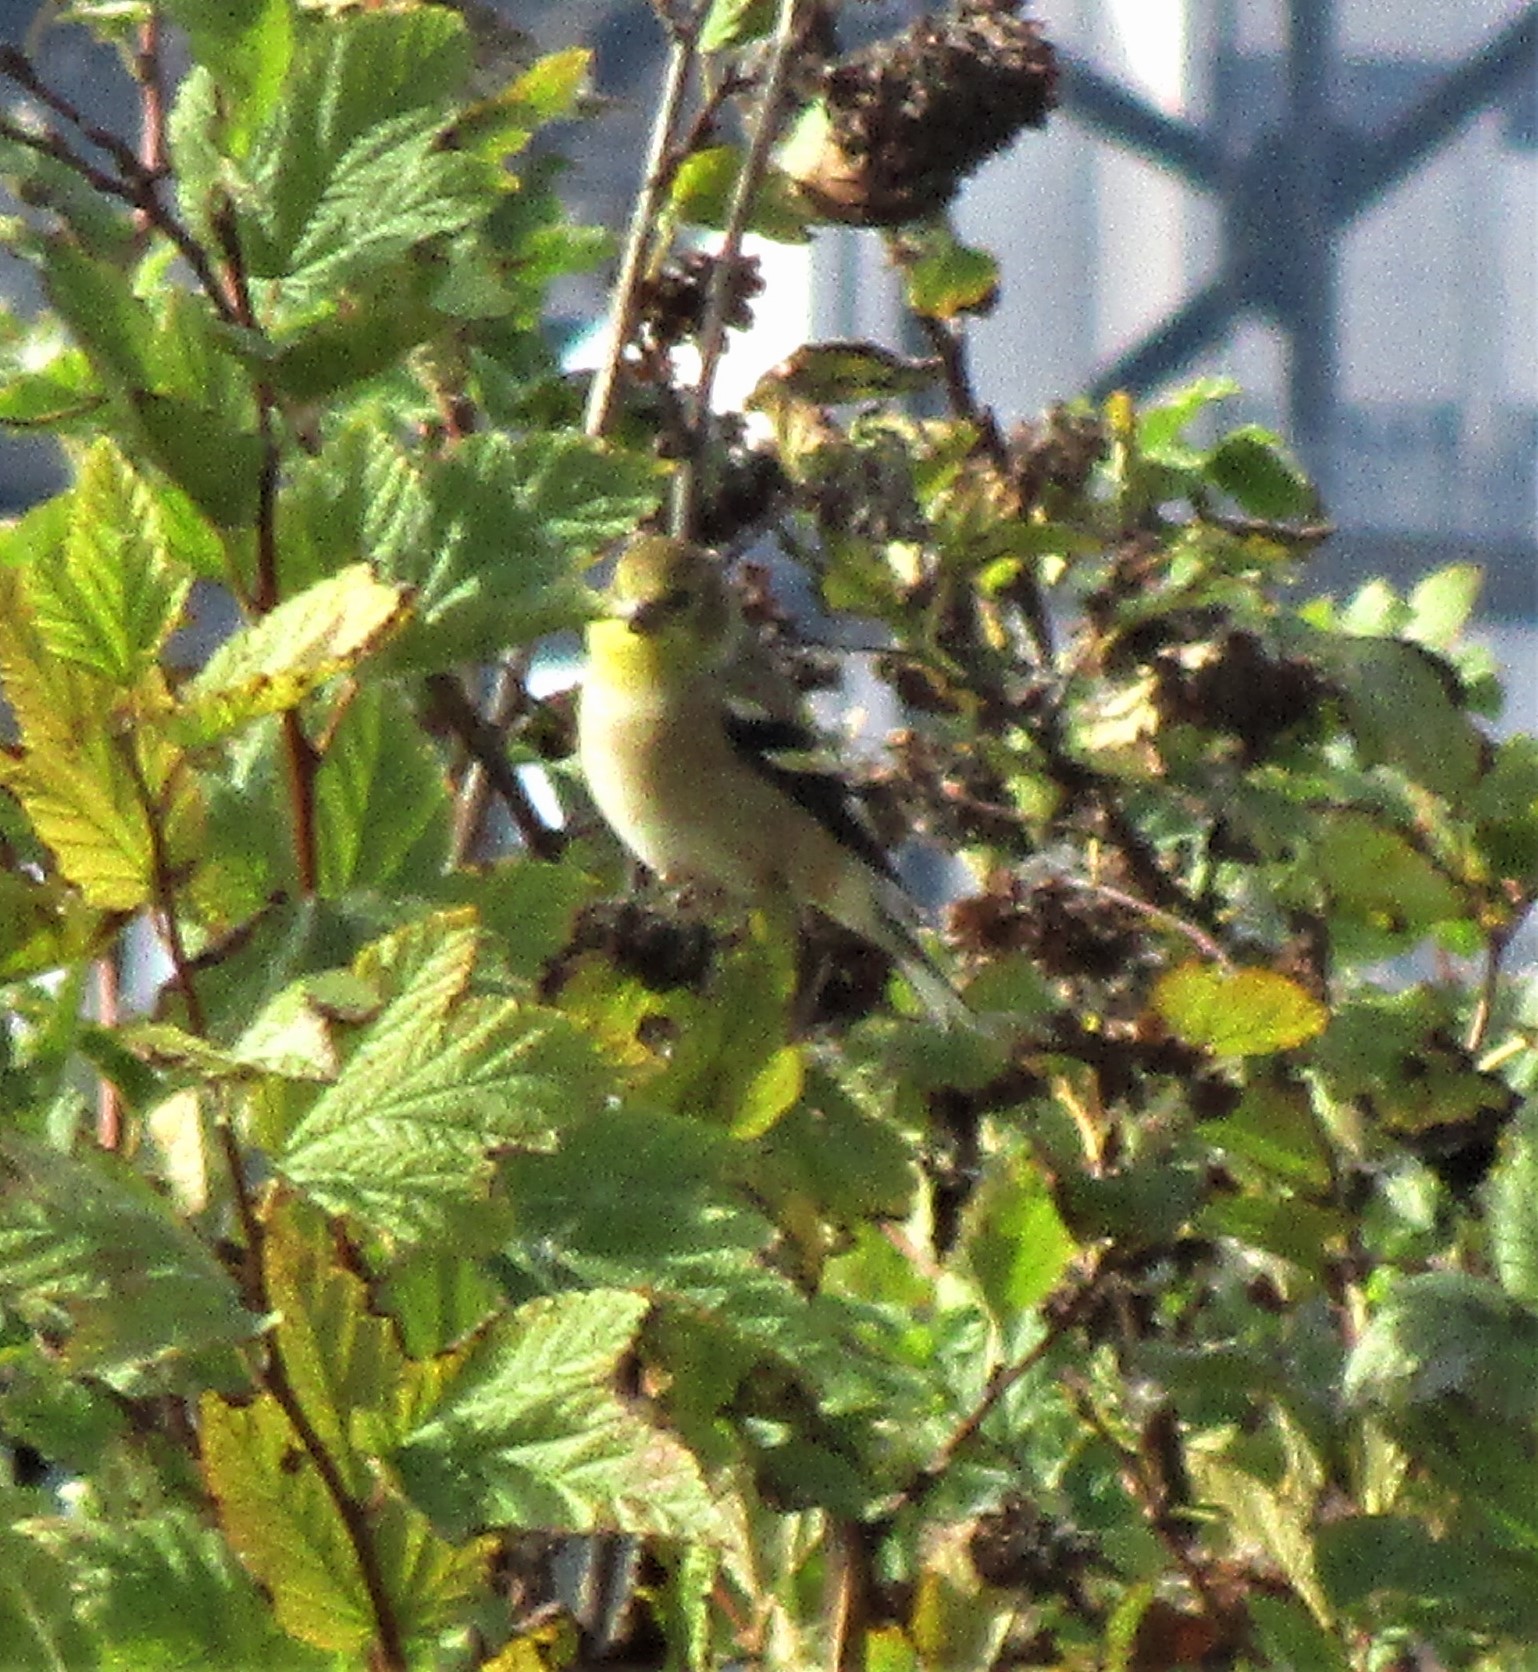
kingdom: Animalia
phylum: Chordata
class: Aves
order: Passeriformes
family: Fringillidae
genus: Spinus
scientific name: Spinus tristis
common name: American goldfinch
